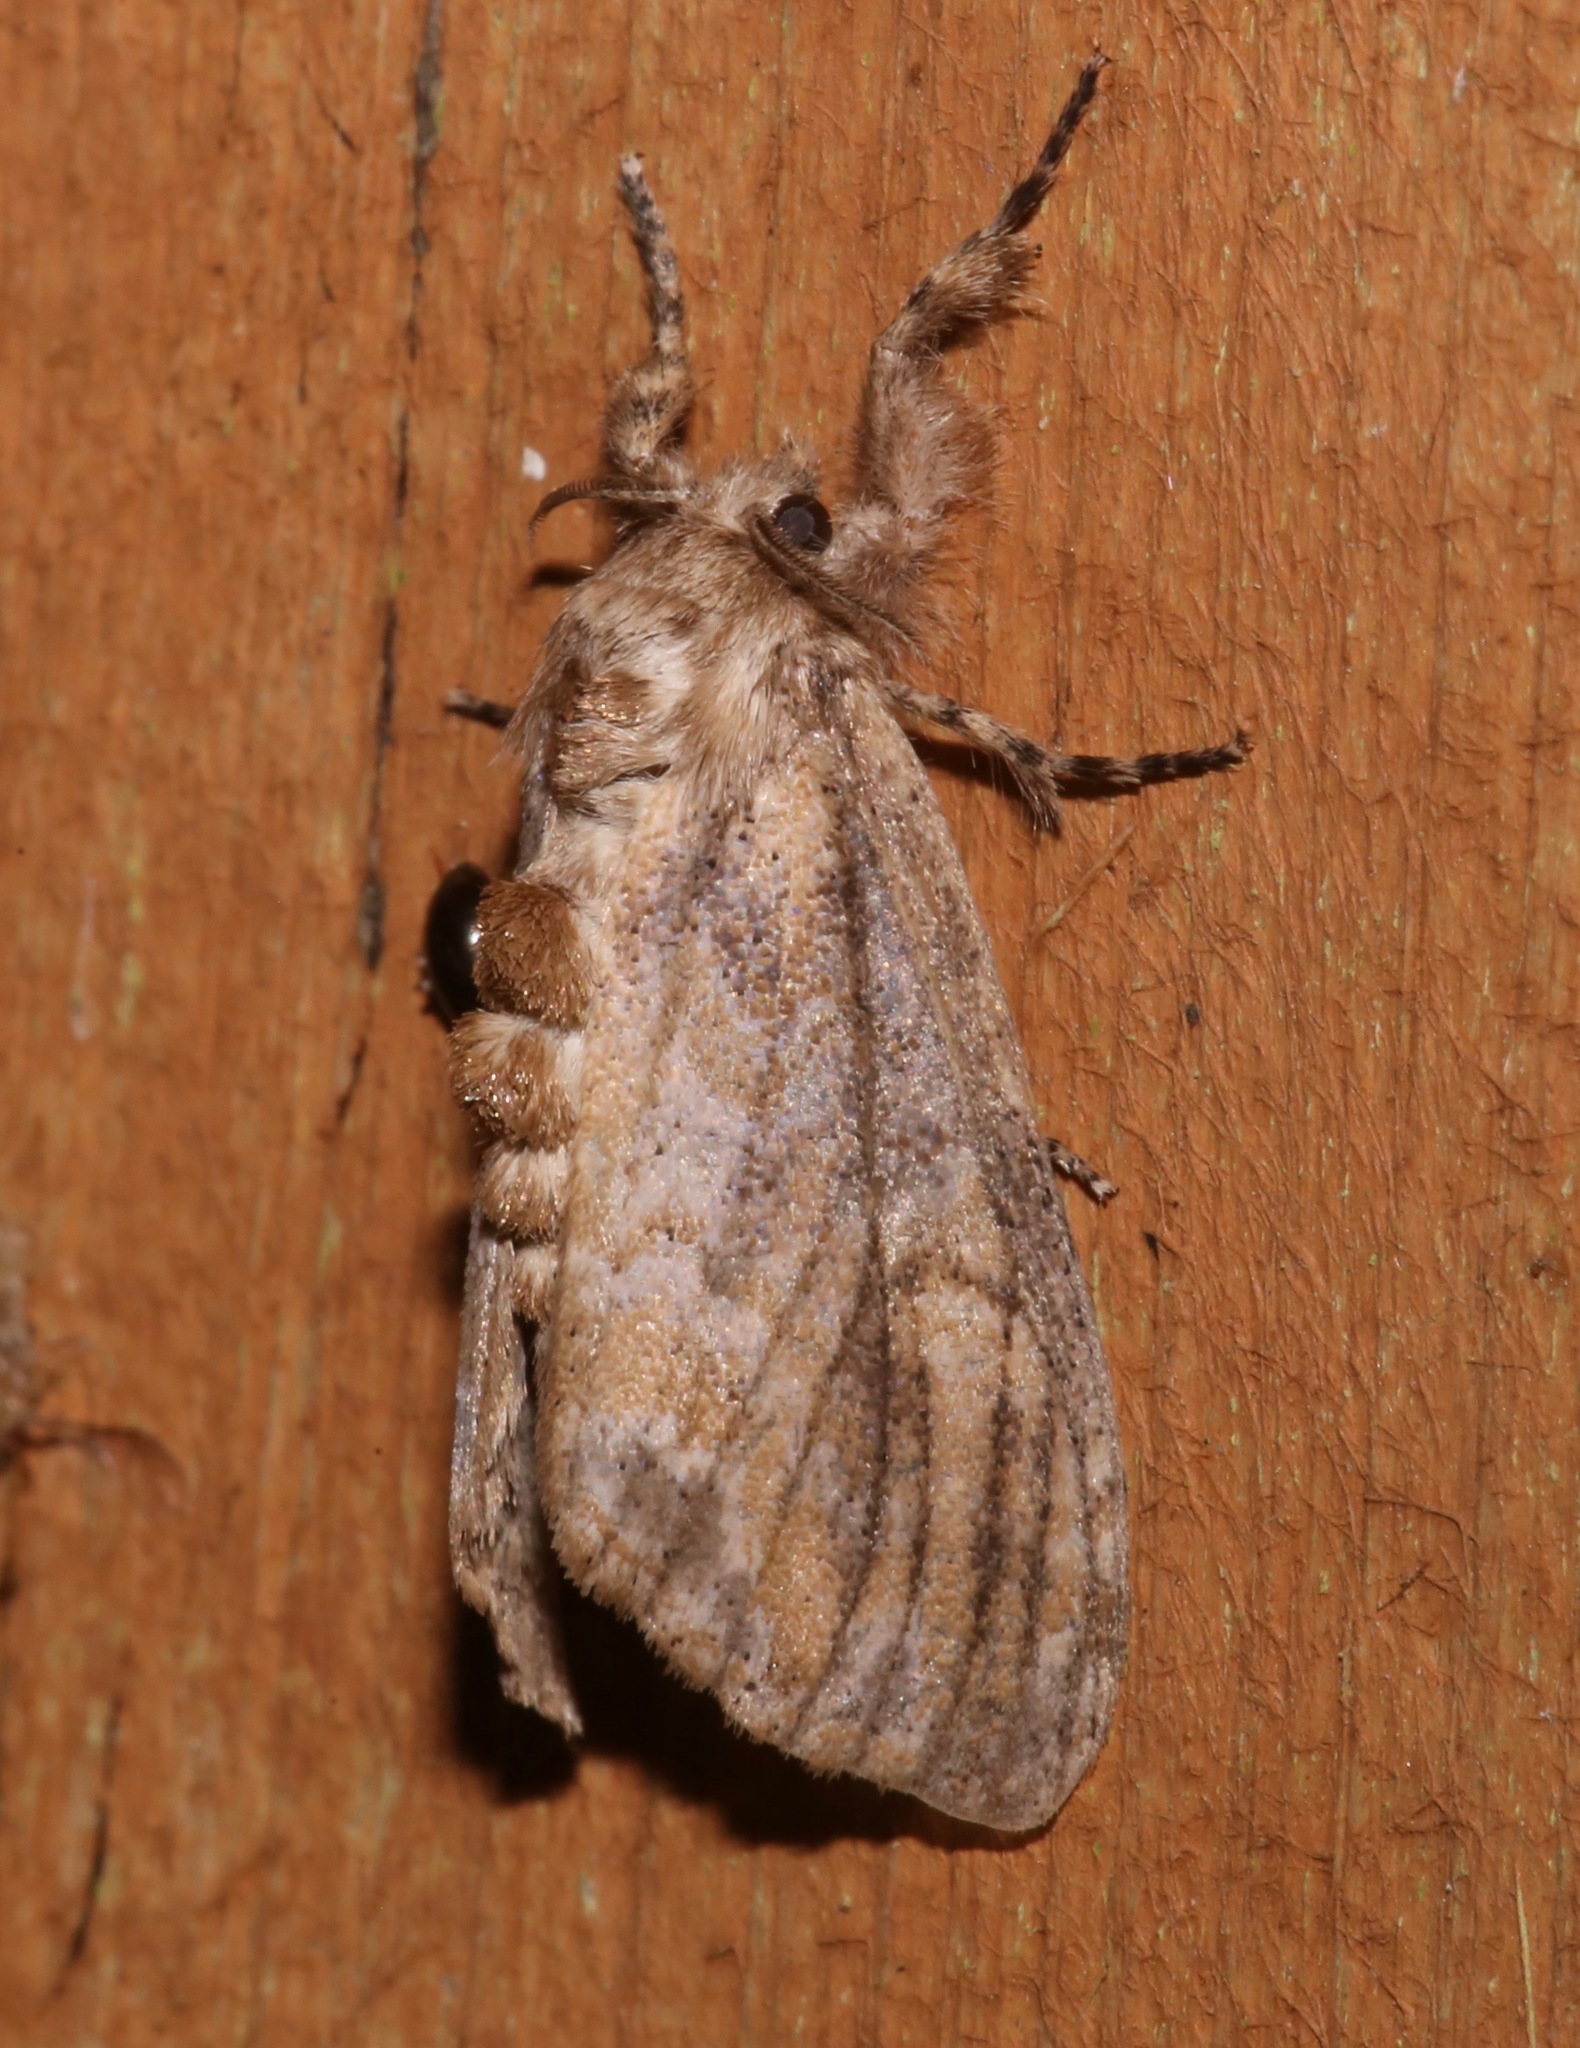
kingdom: Animalia
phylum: Arthropoda
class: Insecta
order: Lepidoptera
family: Erebidae
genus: Dasychira
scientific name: Dasychira atrivenosa
